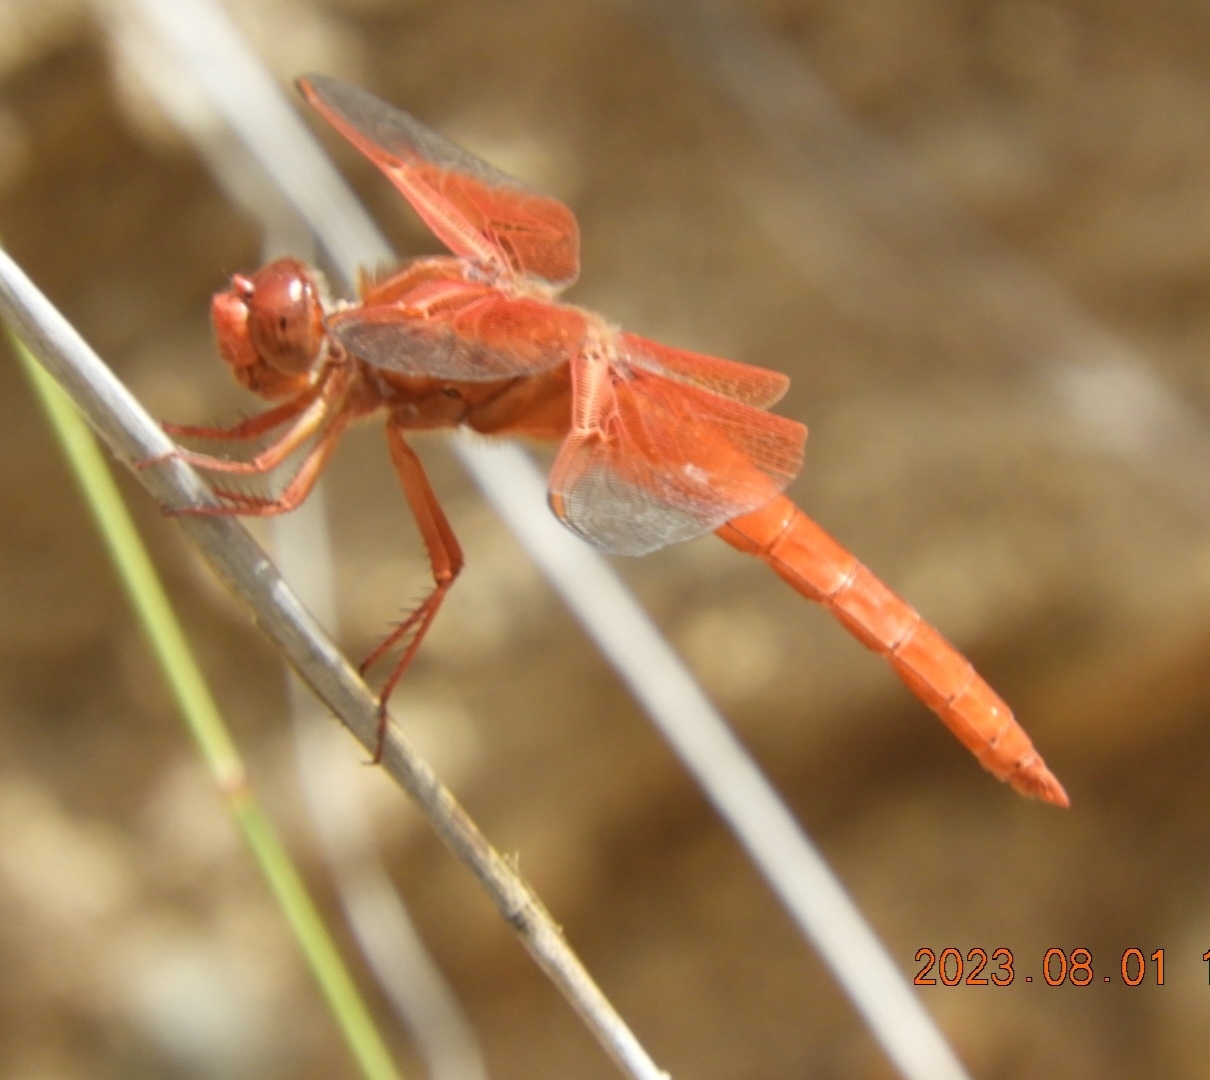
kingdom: Animalia
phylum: Arthropoda
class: Insecta
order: Odonata
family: Libellulidae
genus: Libellula
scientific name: Libellula saturata
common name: Flame skimmer
